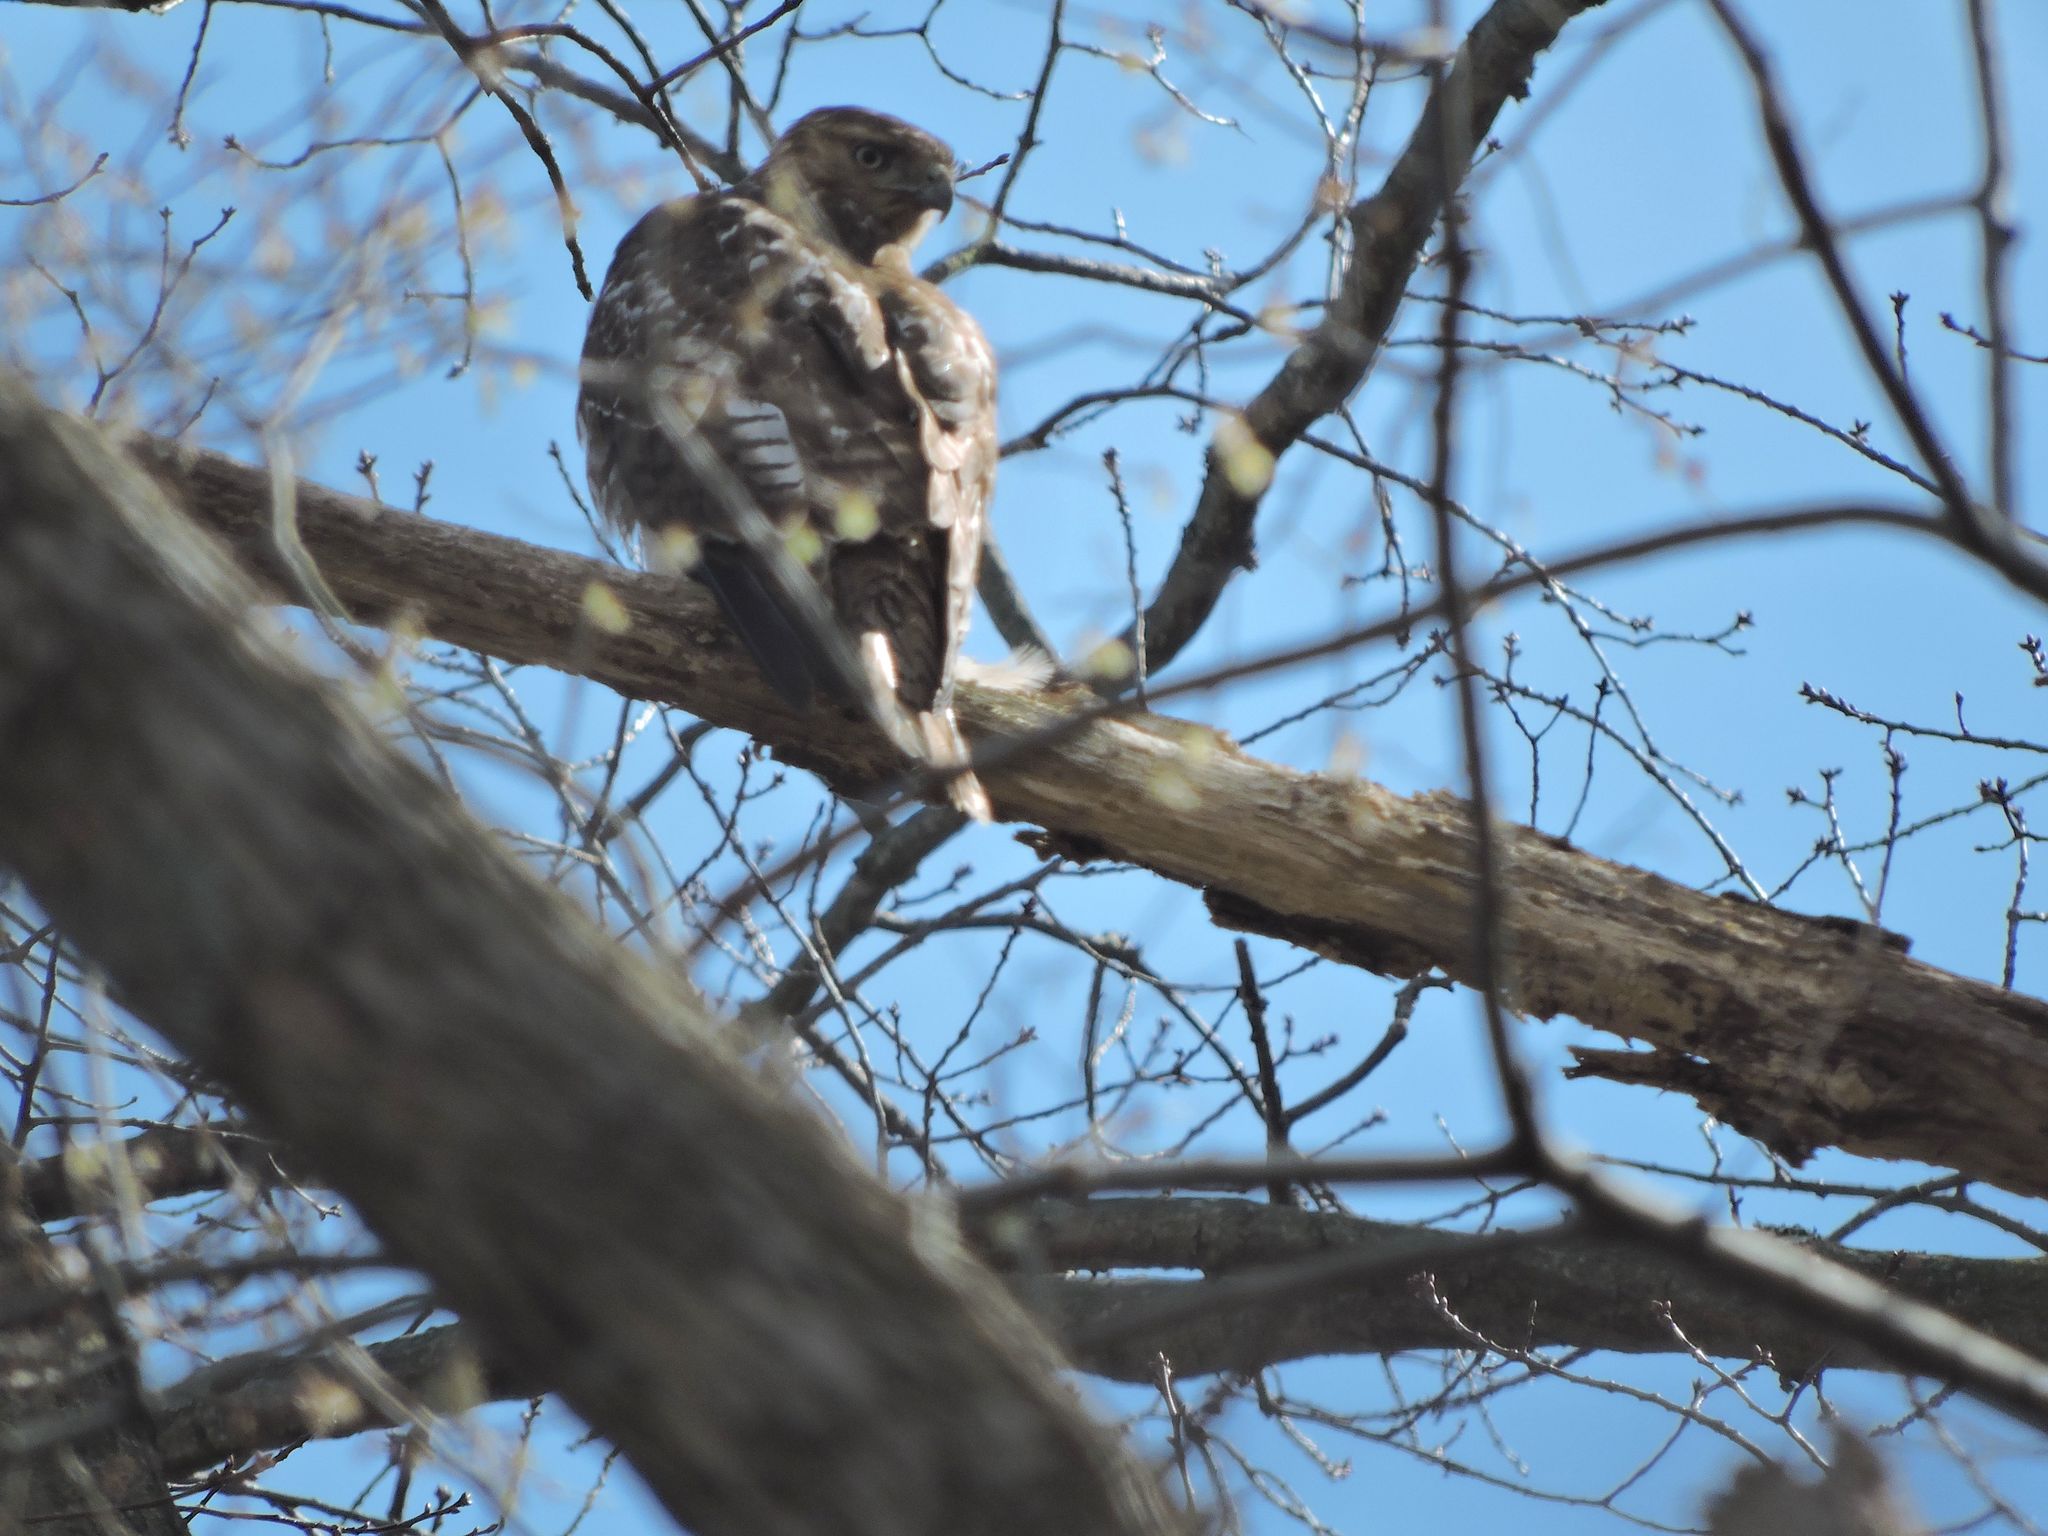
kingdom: Animalia
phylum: Chordata
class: Aves
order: Accipitriformes
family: Accipitridae
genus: Buteo
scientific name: Buteo jamaicensis
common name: Red-tailed hawk
